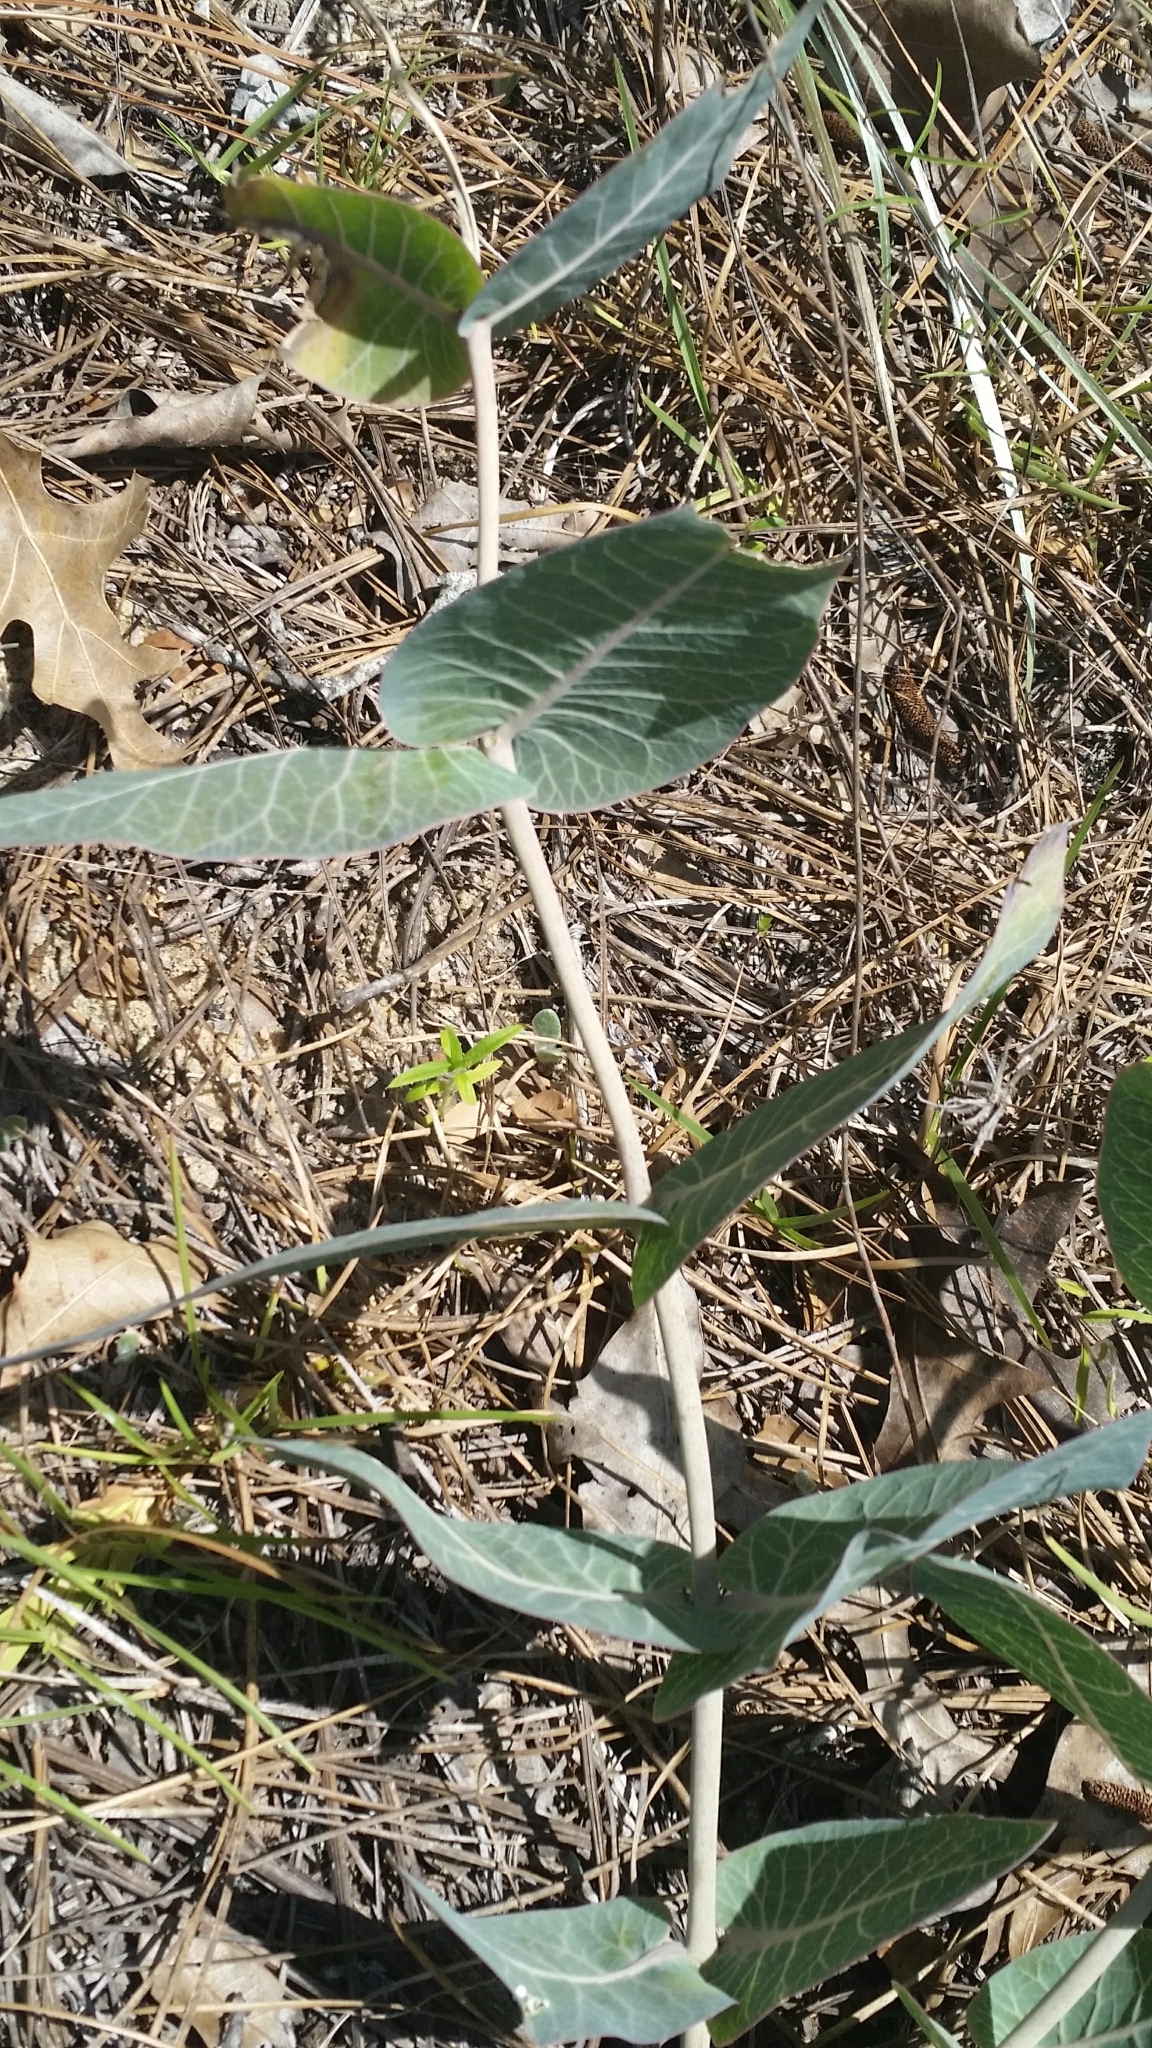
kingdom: Plantae
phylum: Tracheophyta
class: Magnoliopsida
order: Gentianales
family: Apocynaceae
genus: Asclepias
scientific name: Asclepias humistrata
